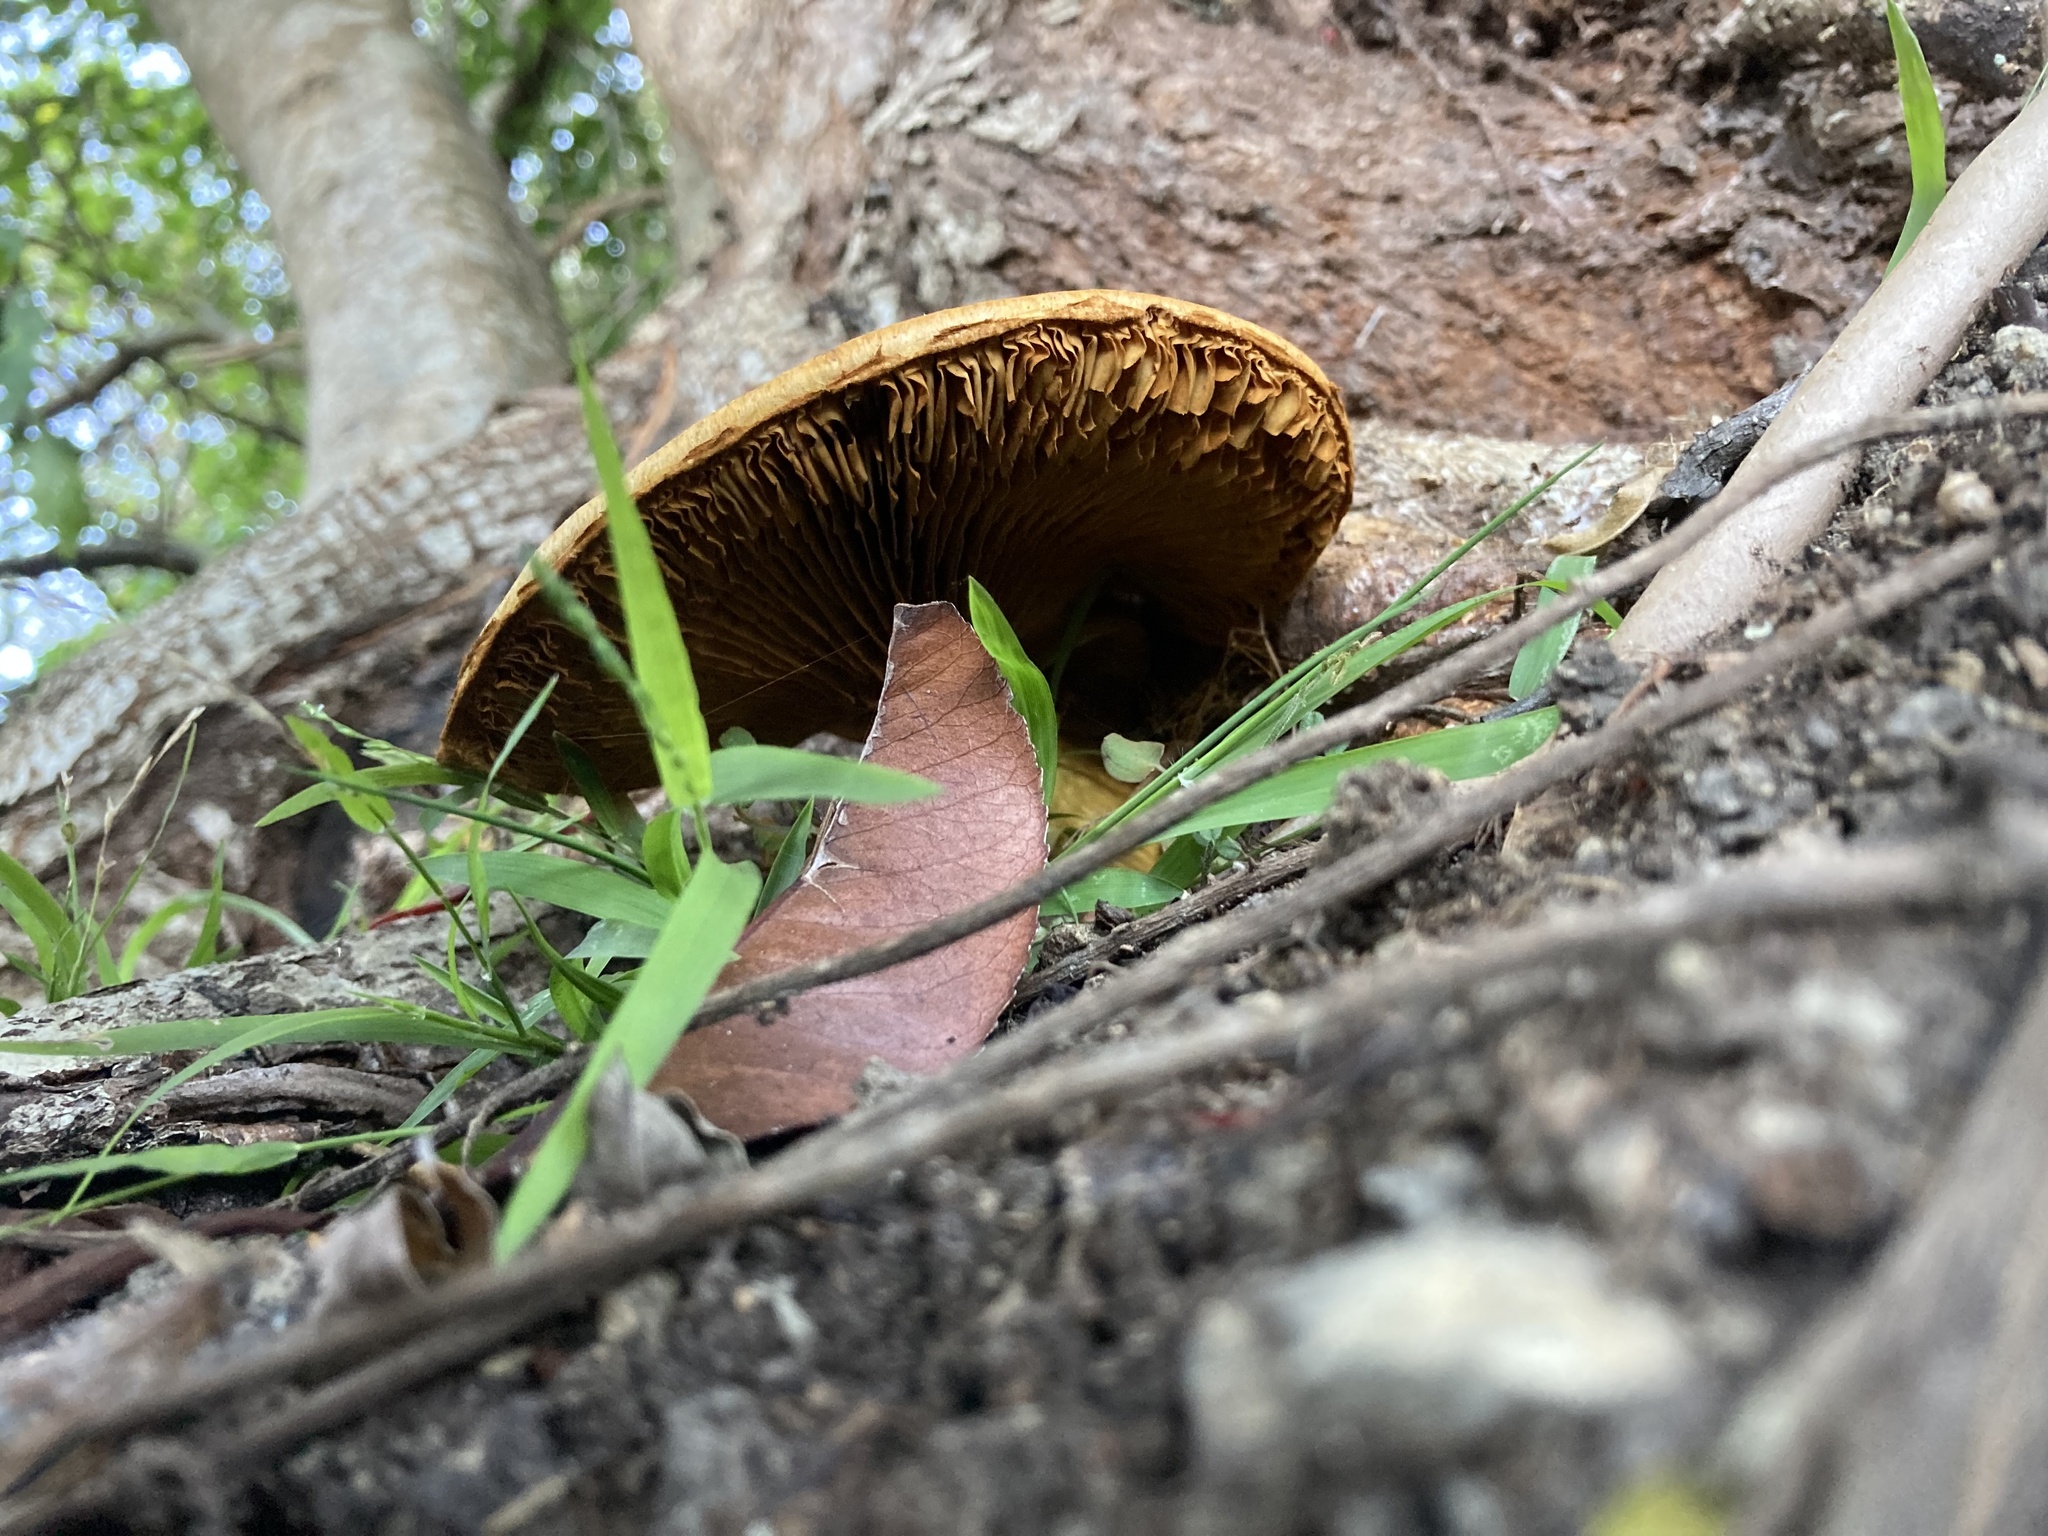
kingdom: Fungi
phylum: Basidiomycota
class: Agaricomycetes
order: Agaricales
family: Hymenogastraceae
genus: Gymnopilus
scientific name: Gymnopilus junonius
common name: Spectacular rustgill
